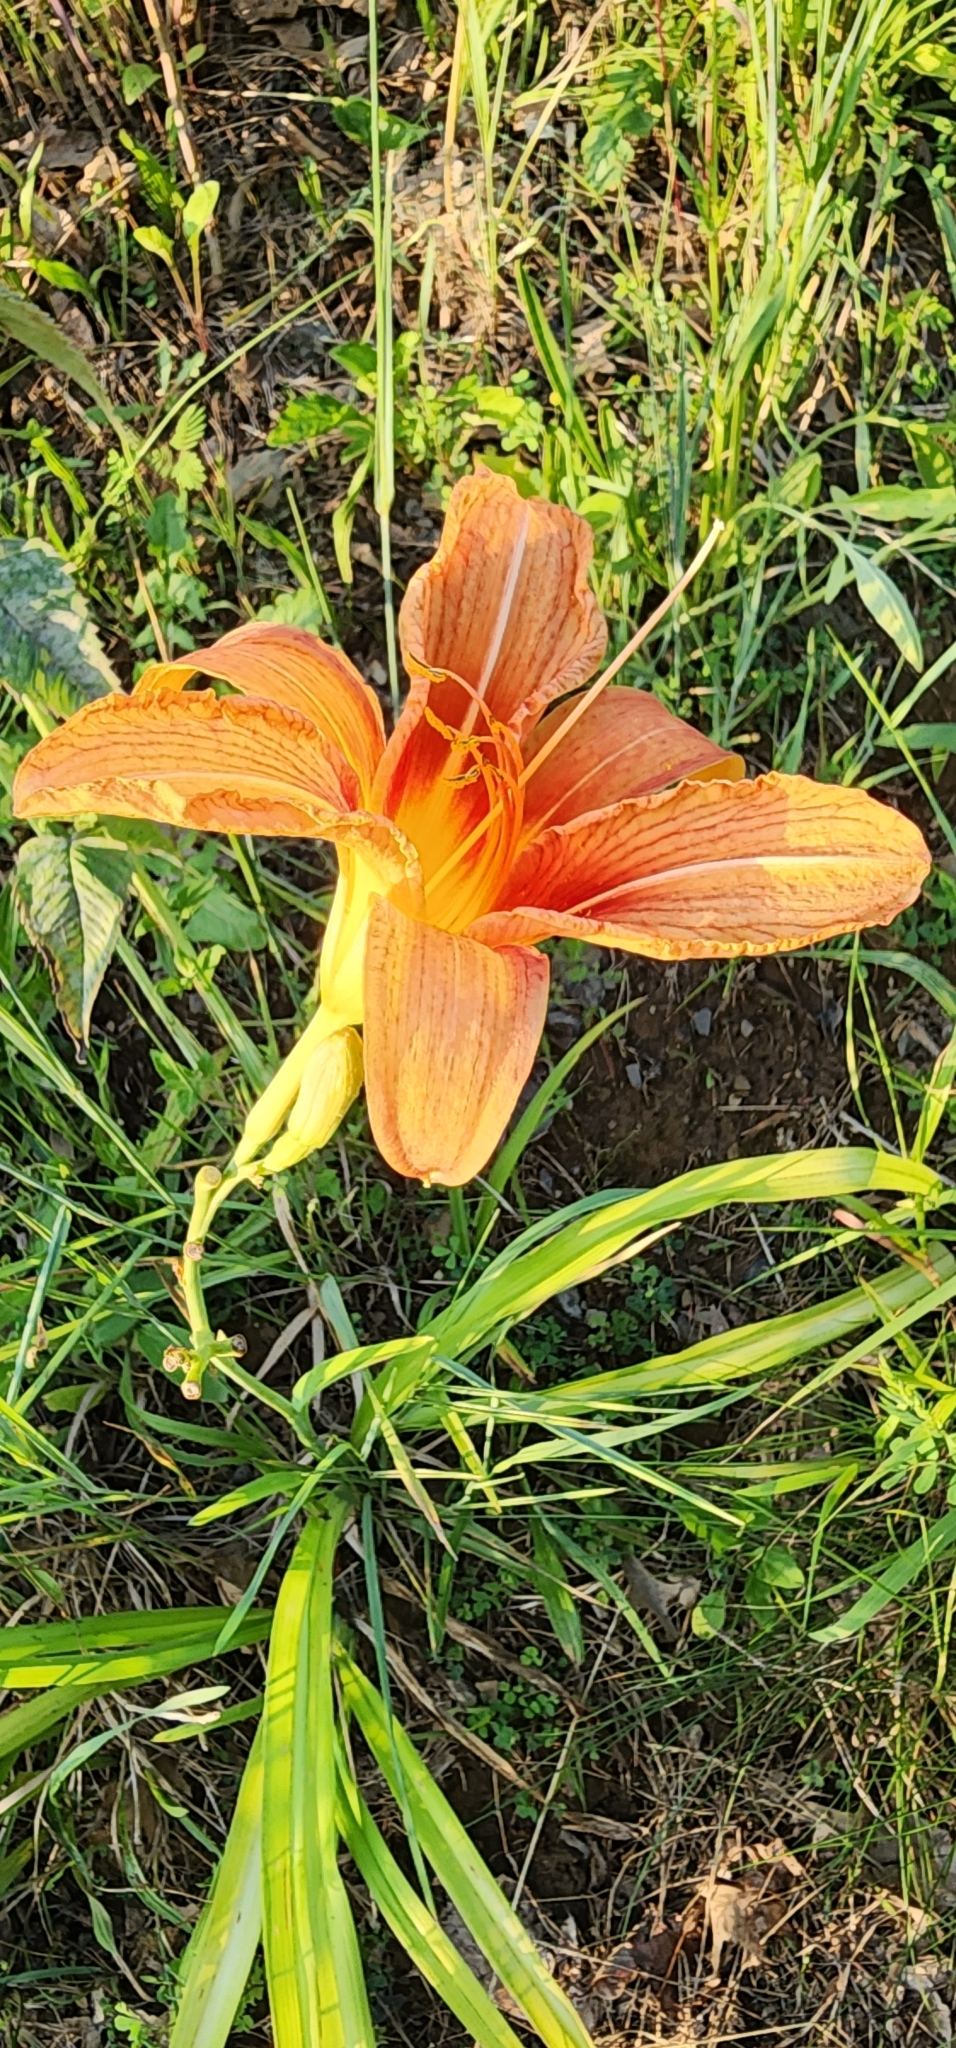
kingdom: Plantae
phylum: Tracheophyta
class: Liliopsida
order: Asparagales
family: Asphodelaceae
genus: Hemerocallis
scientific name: Hemerocallis fulva
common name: Orange day-lily
